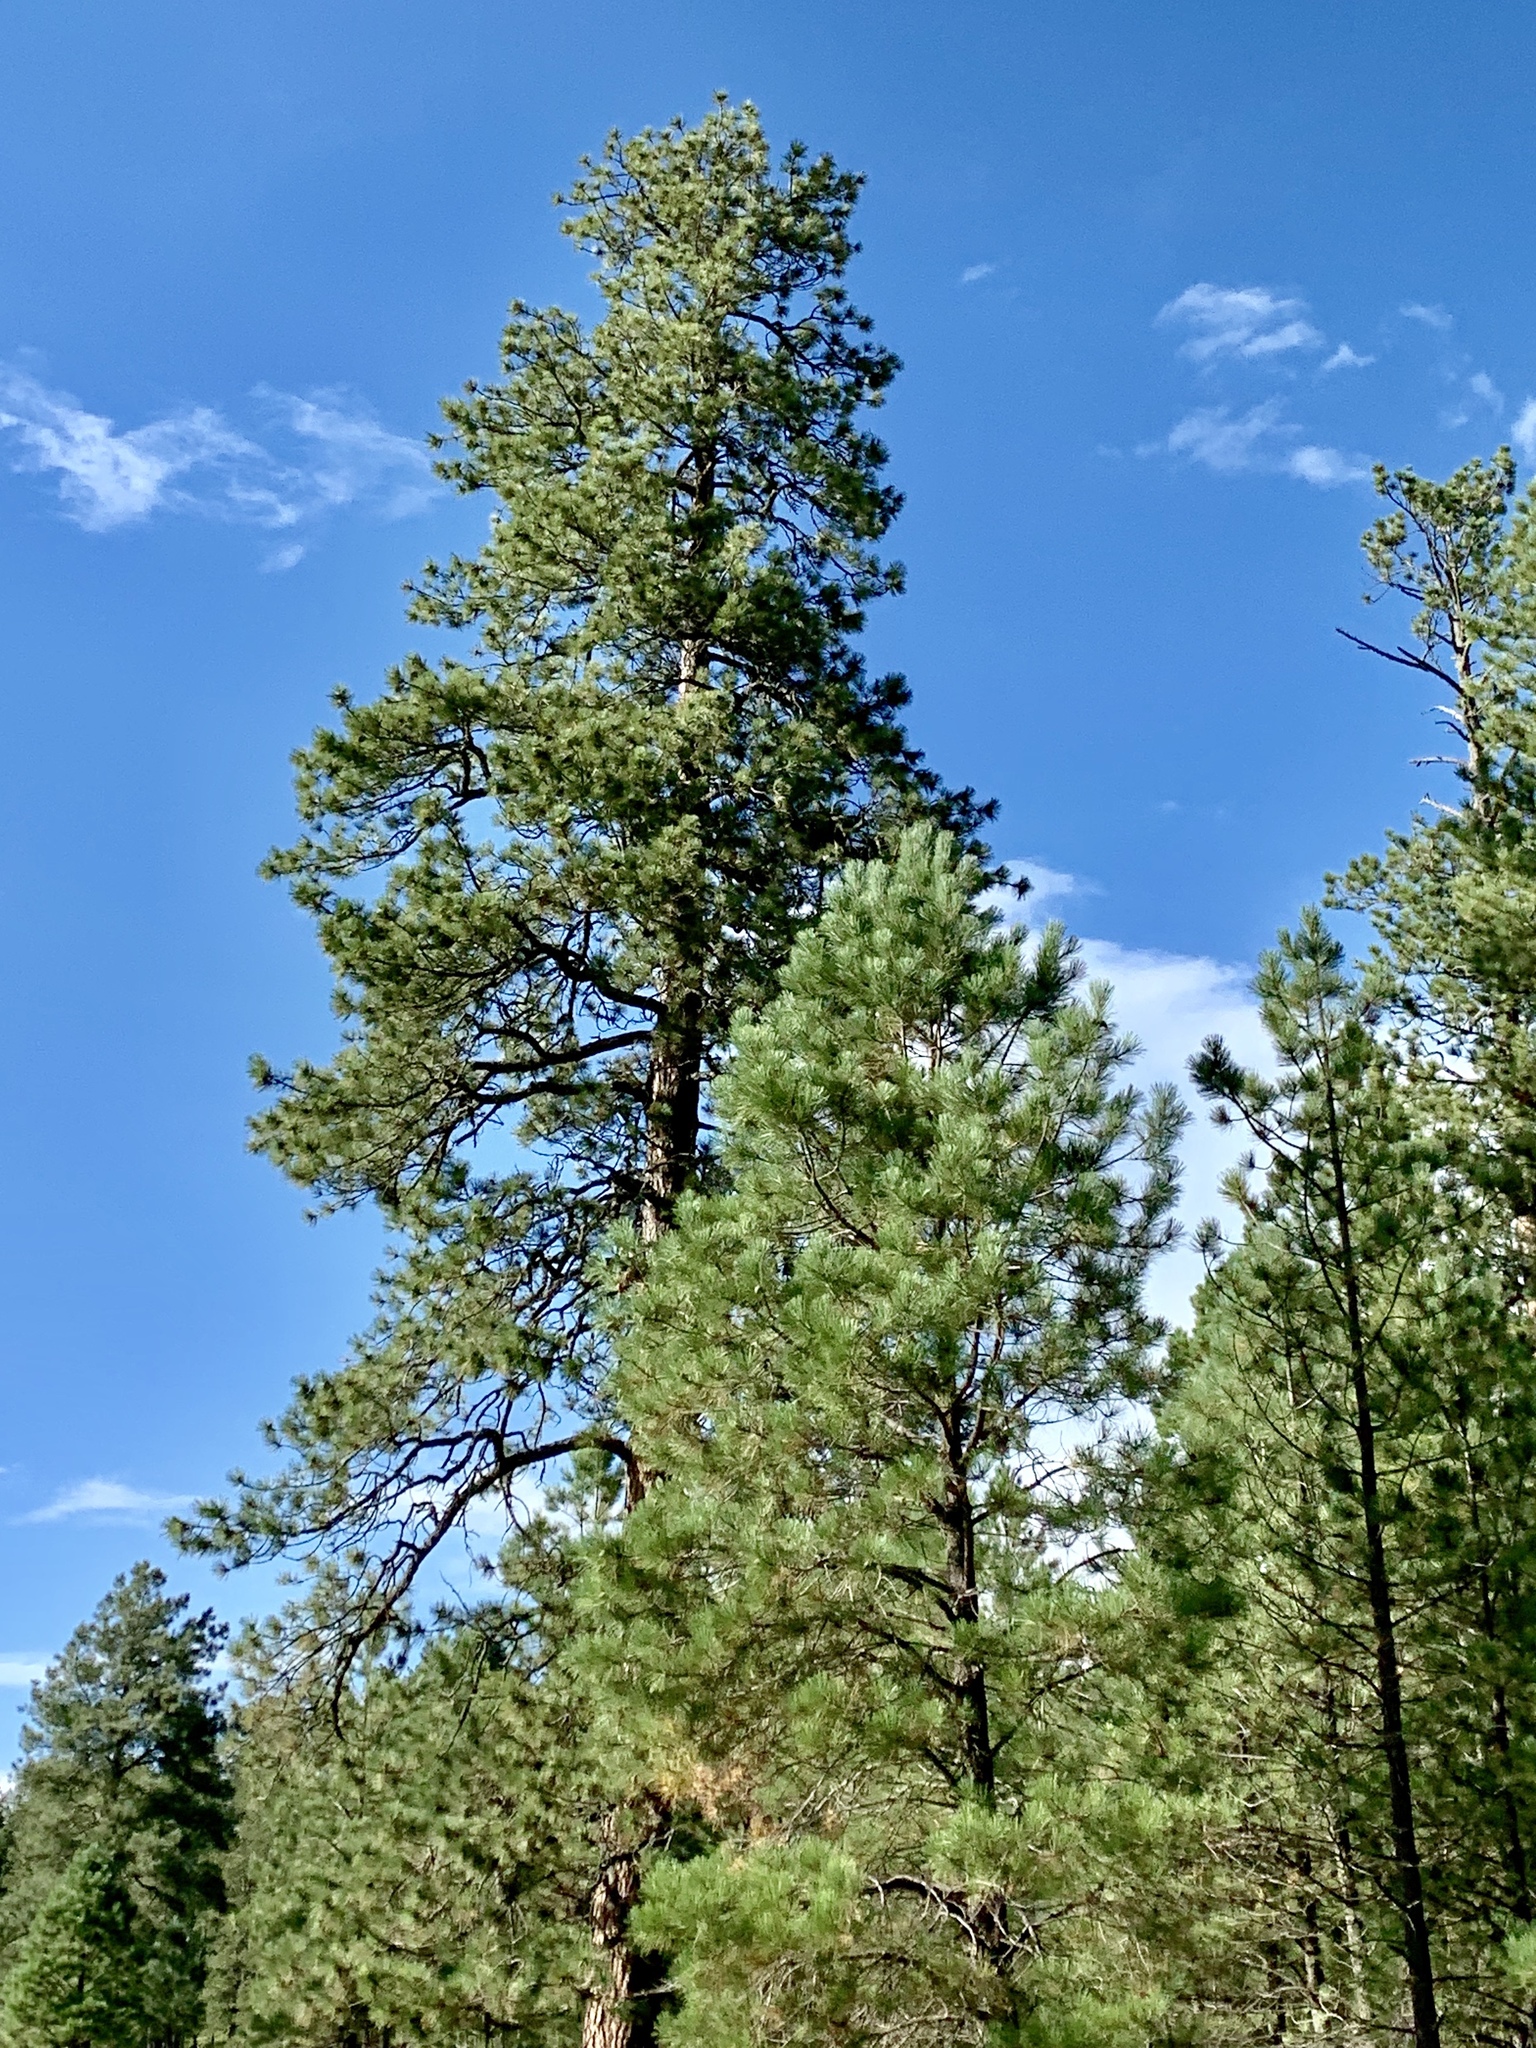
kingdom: Plantae
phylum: Tracheophyta
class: Pinopsida
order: Pinales
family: Pinaceae
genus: Pinus
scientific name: Pinus ponderosa
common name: Western yellow-pine
